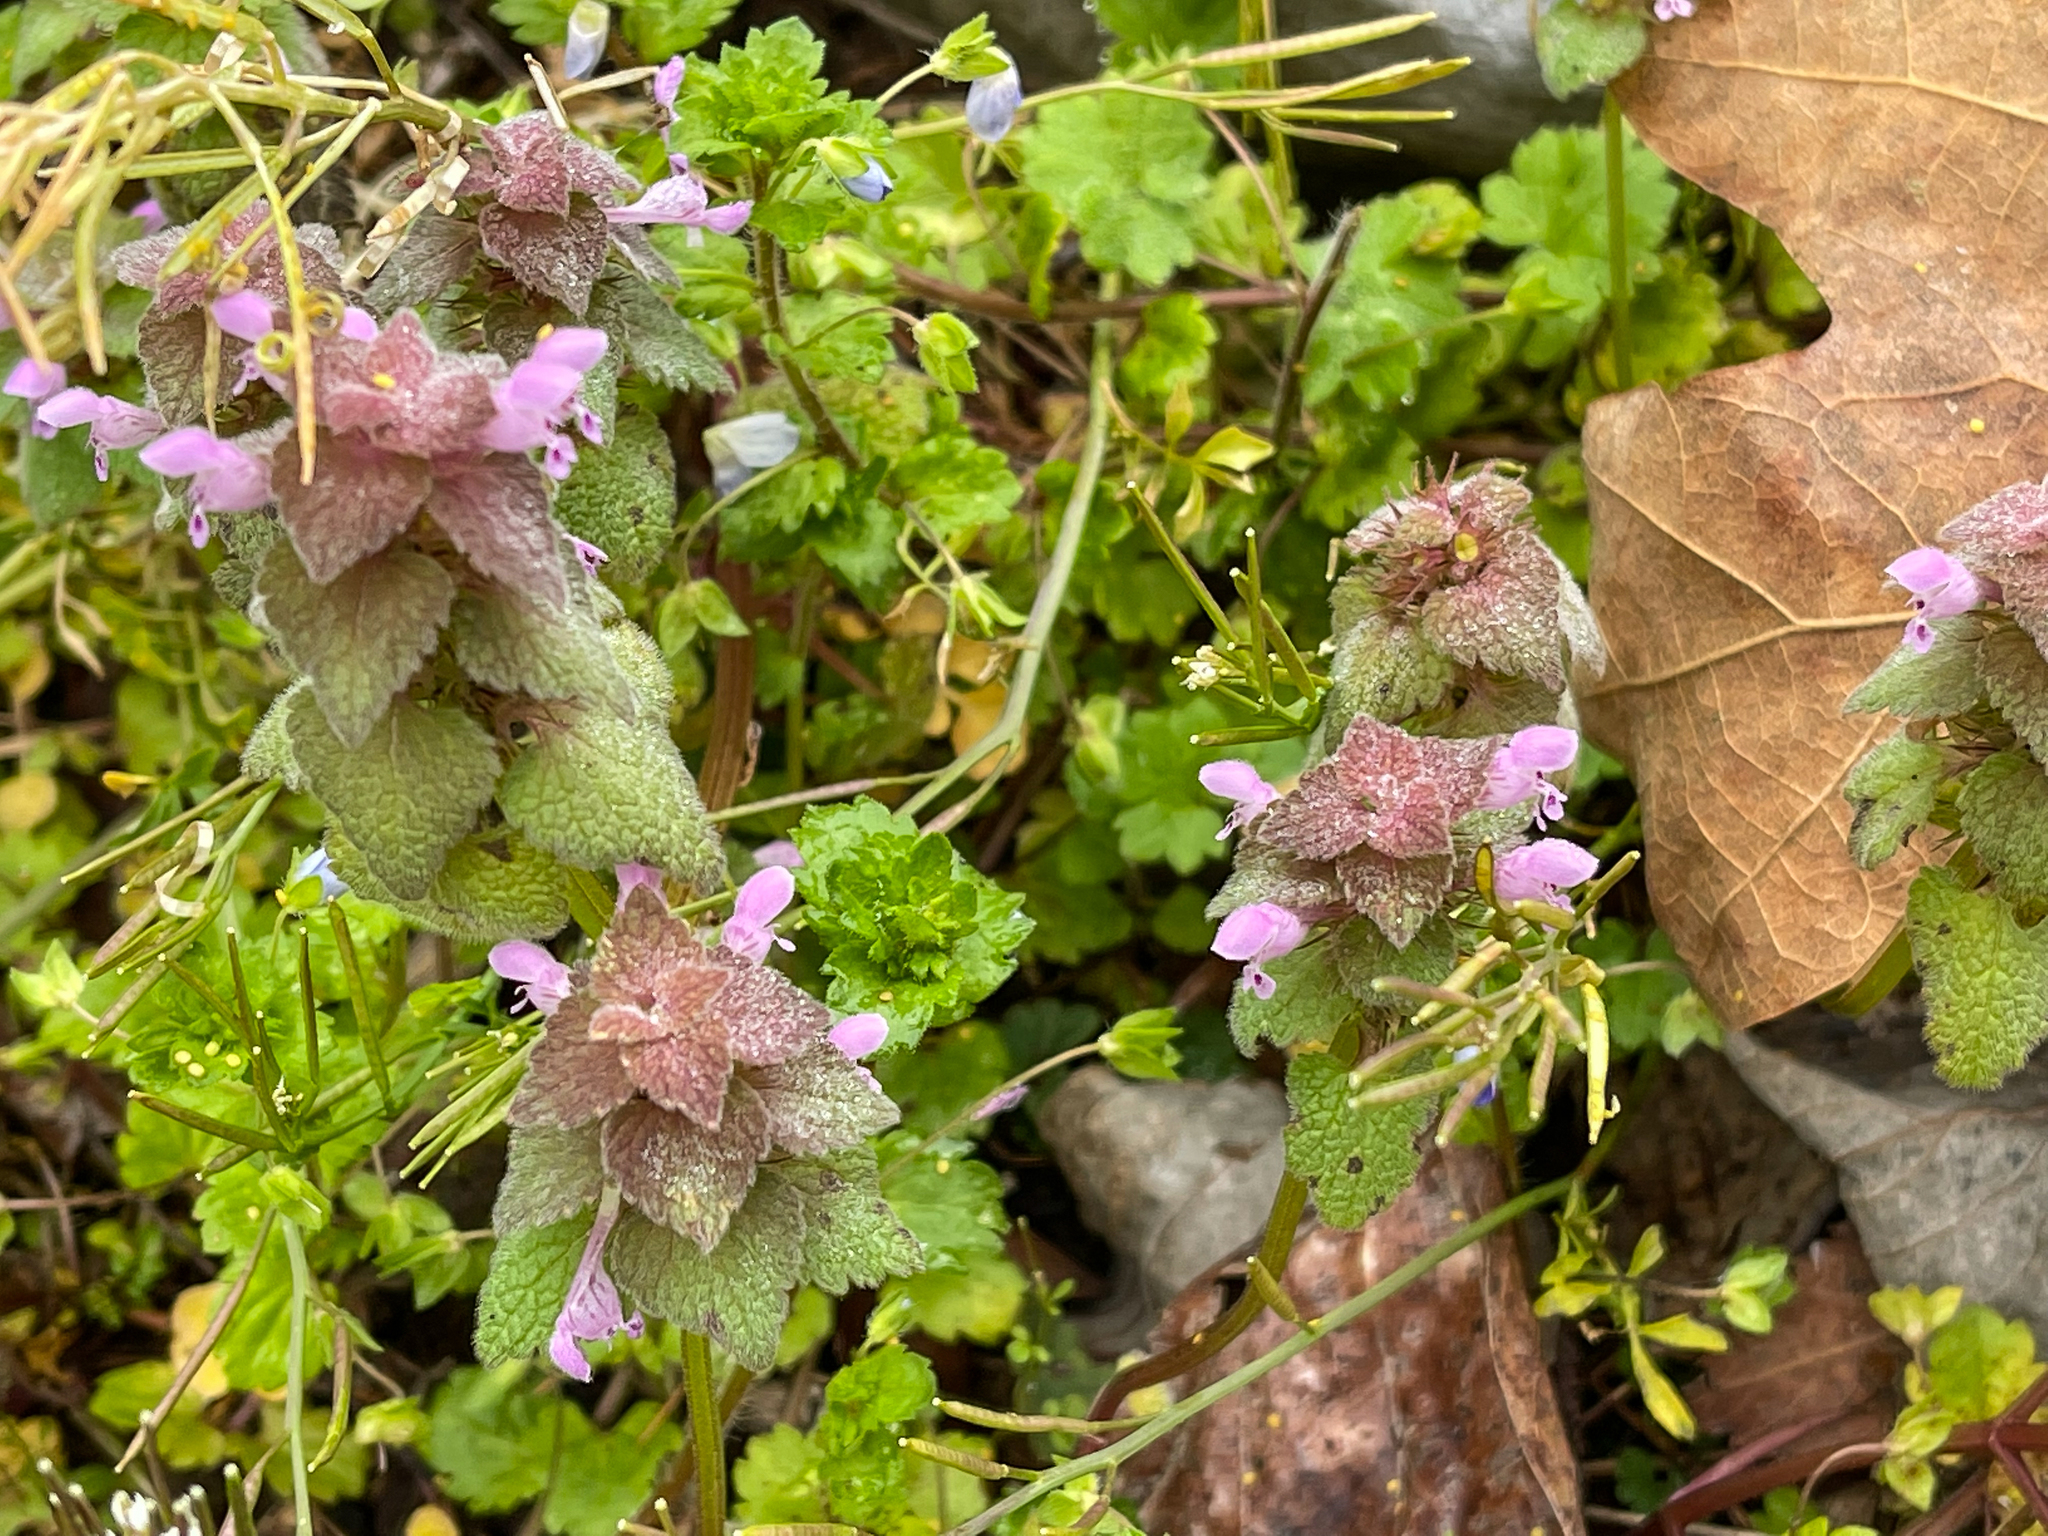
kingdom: Plantae
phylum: Tracheophyta
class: Magnoliopsida
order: Lamiales
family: Lamiaceae
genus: Lamium
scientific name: Lamium purpureum
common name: Red dead-nettle
